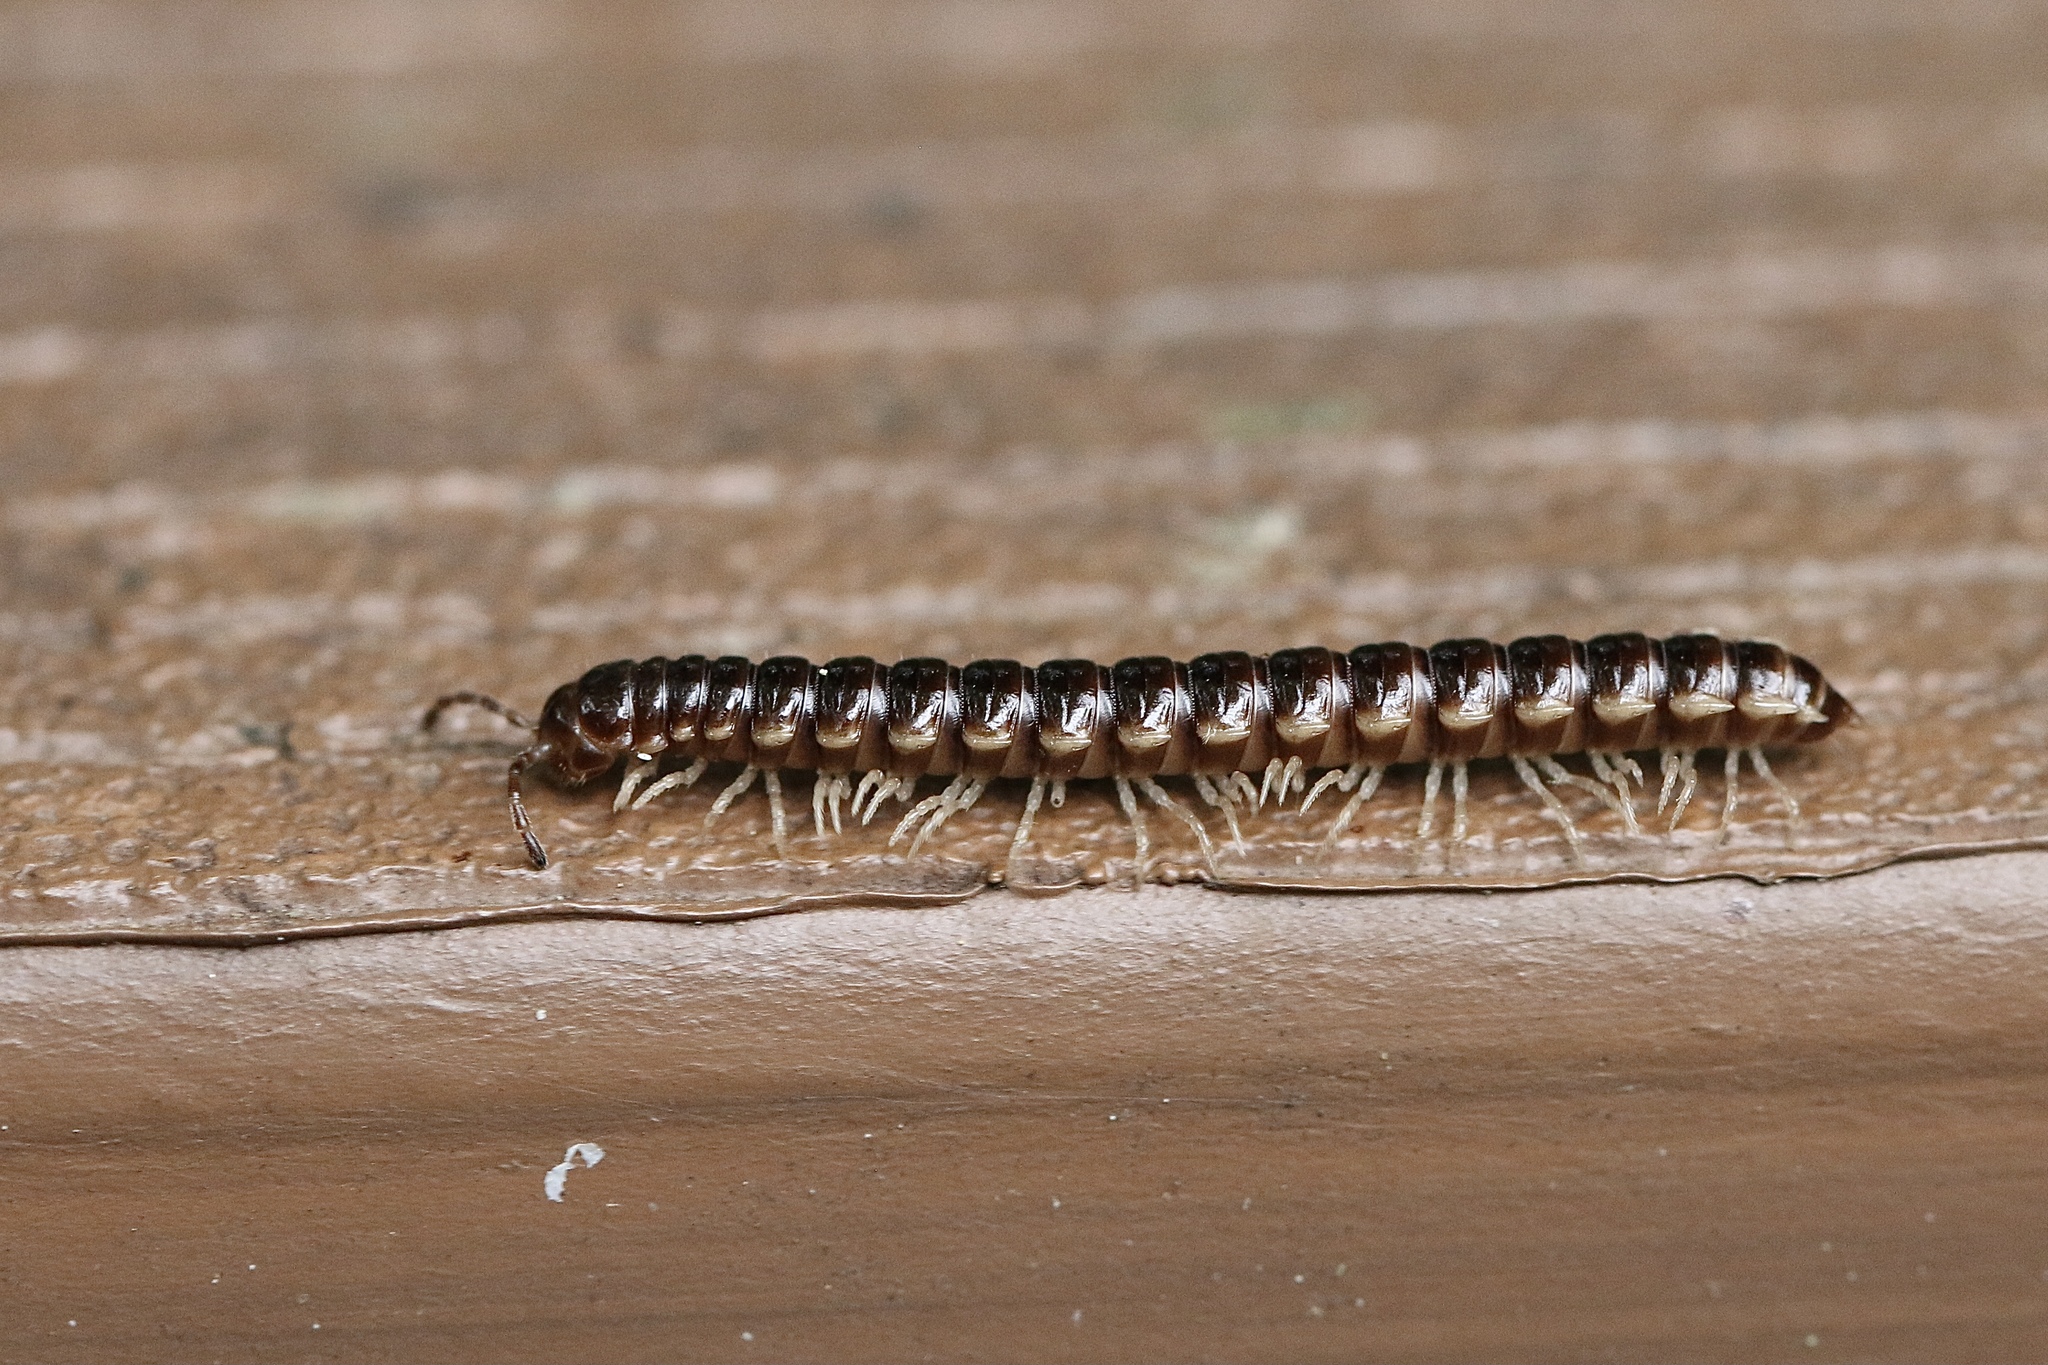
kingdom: Animalia
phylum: Arthropoda
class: Diplopoda
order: Polydesmida
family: Paradoxosomatidae
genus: Oxidus
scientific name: Oxidus gracilis
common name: Greenhouse millipede
